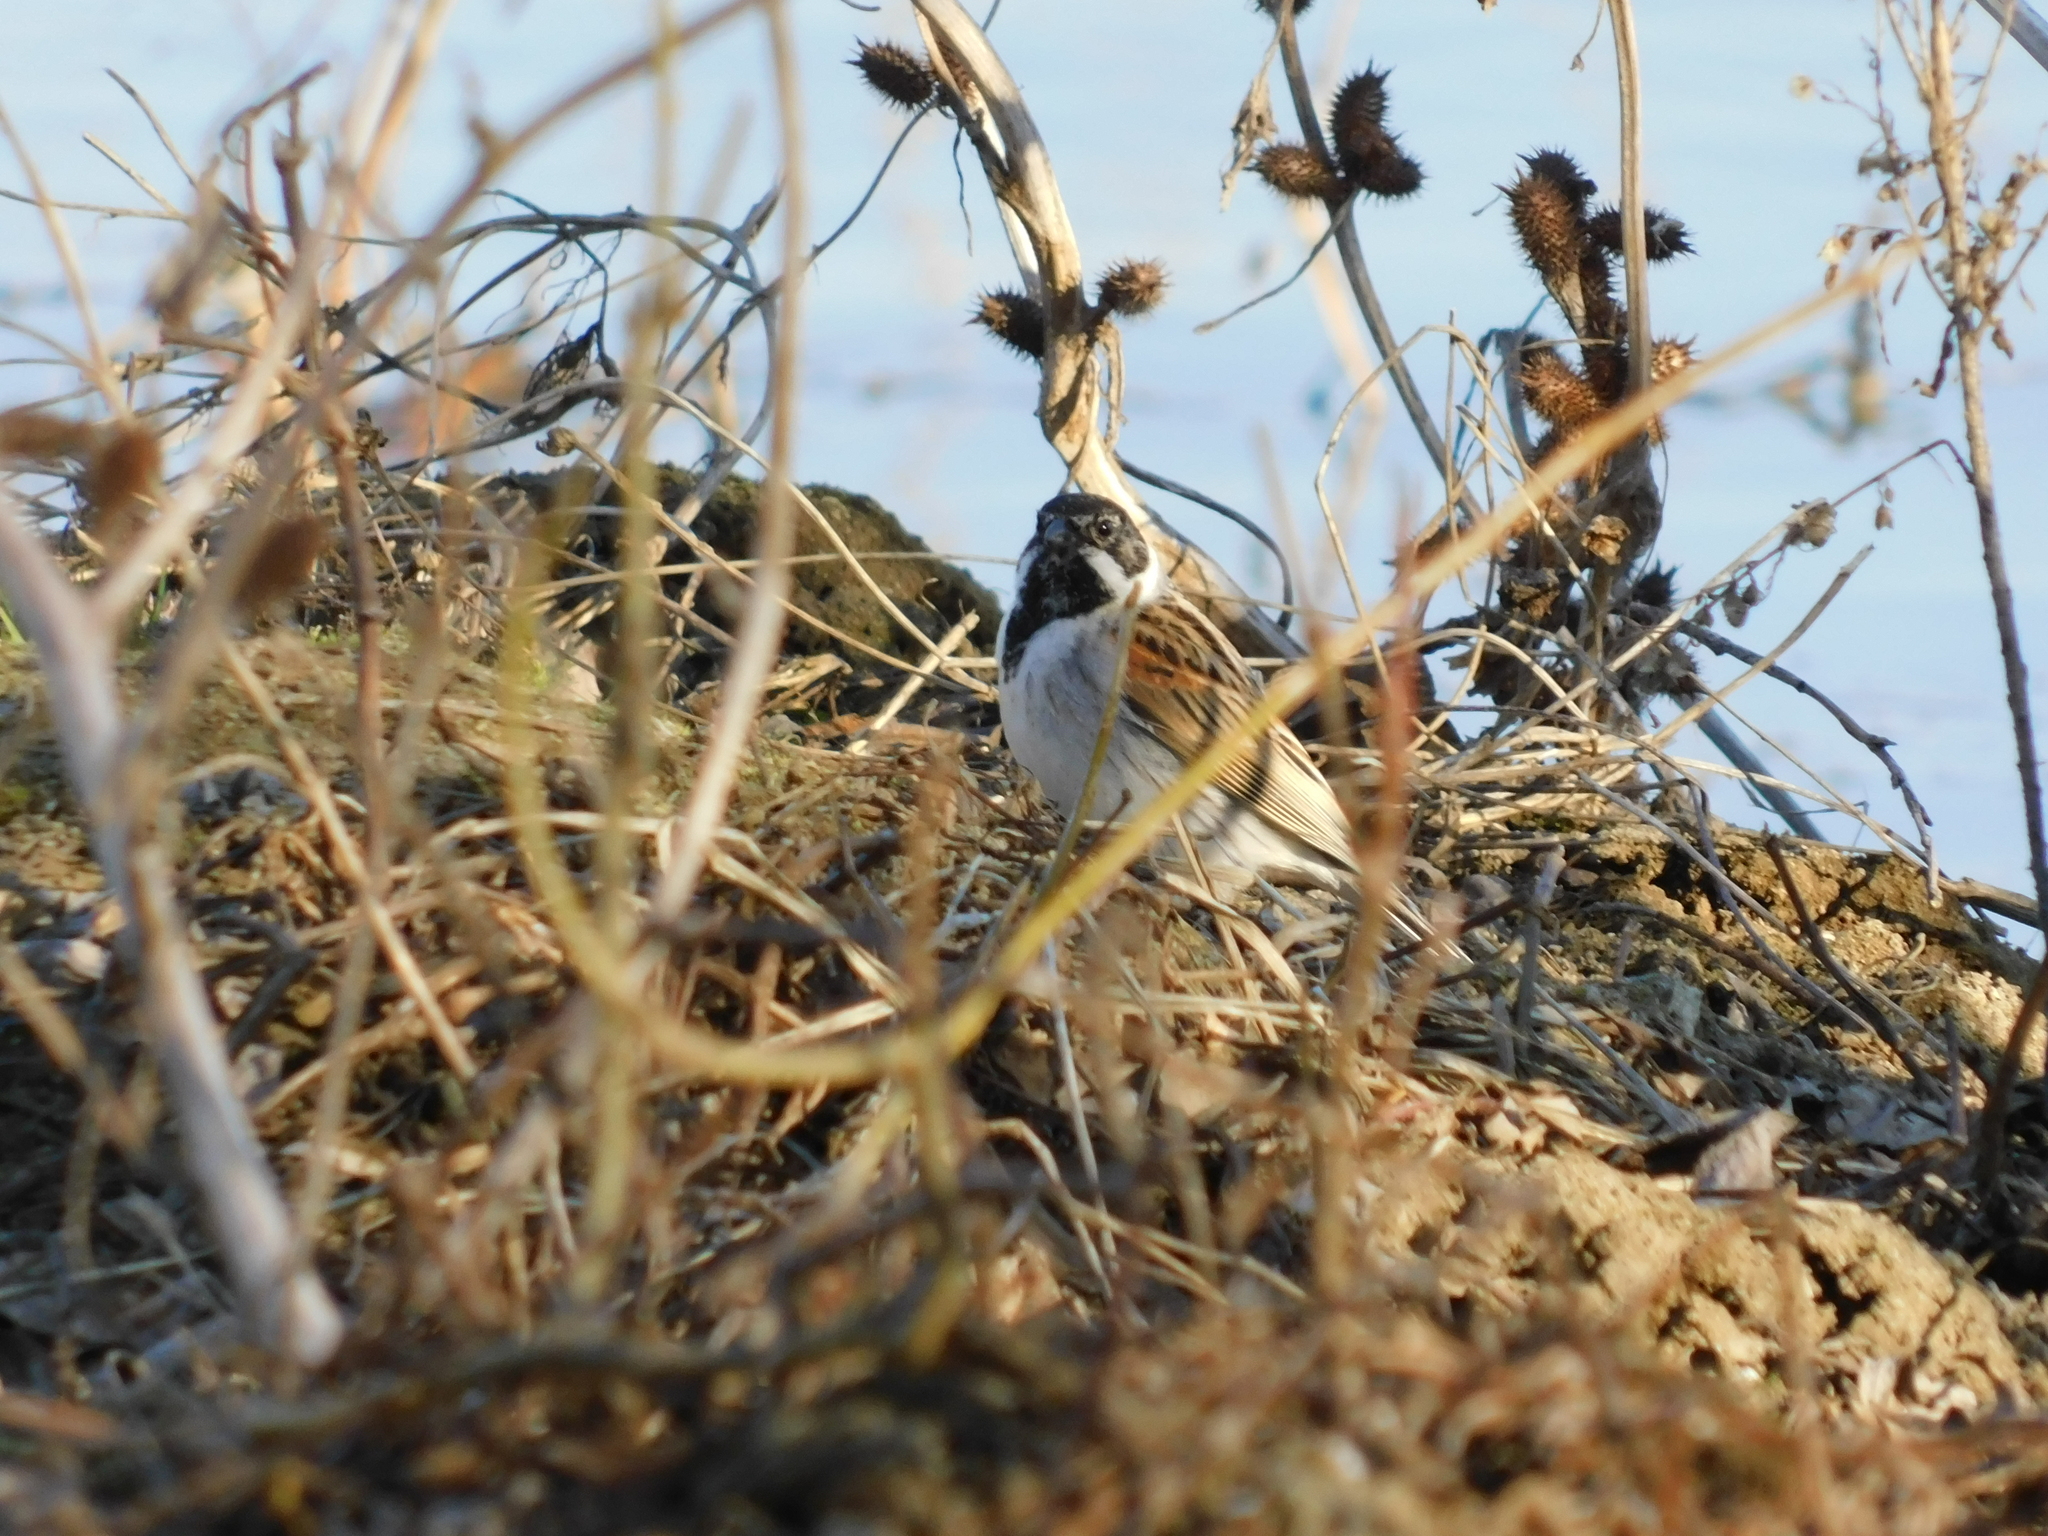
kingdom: Animalia
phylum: Chordata
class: Aves
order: Passeriformes
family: Emberizidae
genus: Emberiza
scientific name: Emberiza schoeniclus
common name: Reed bunting
